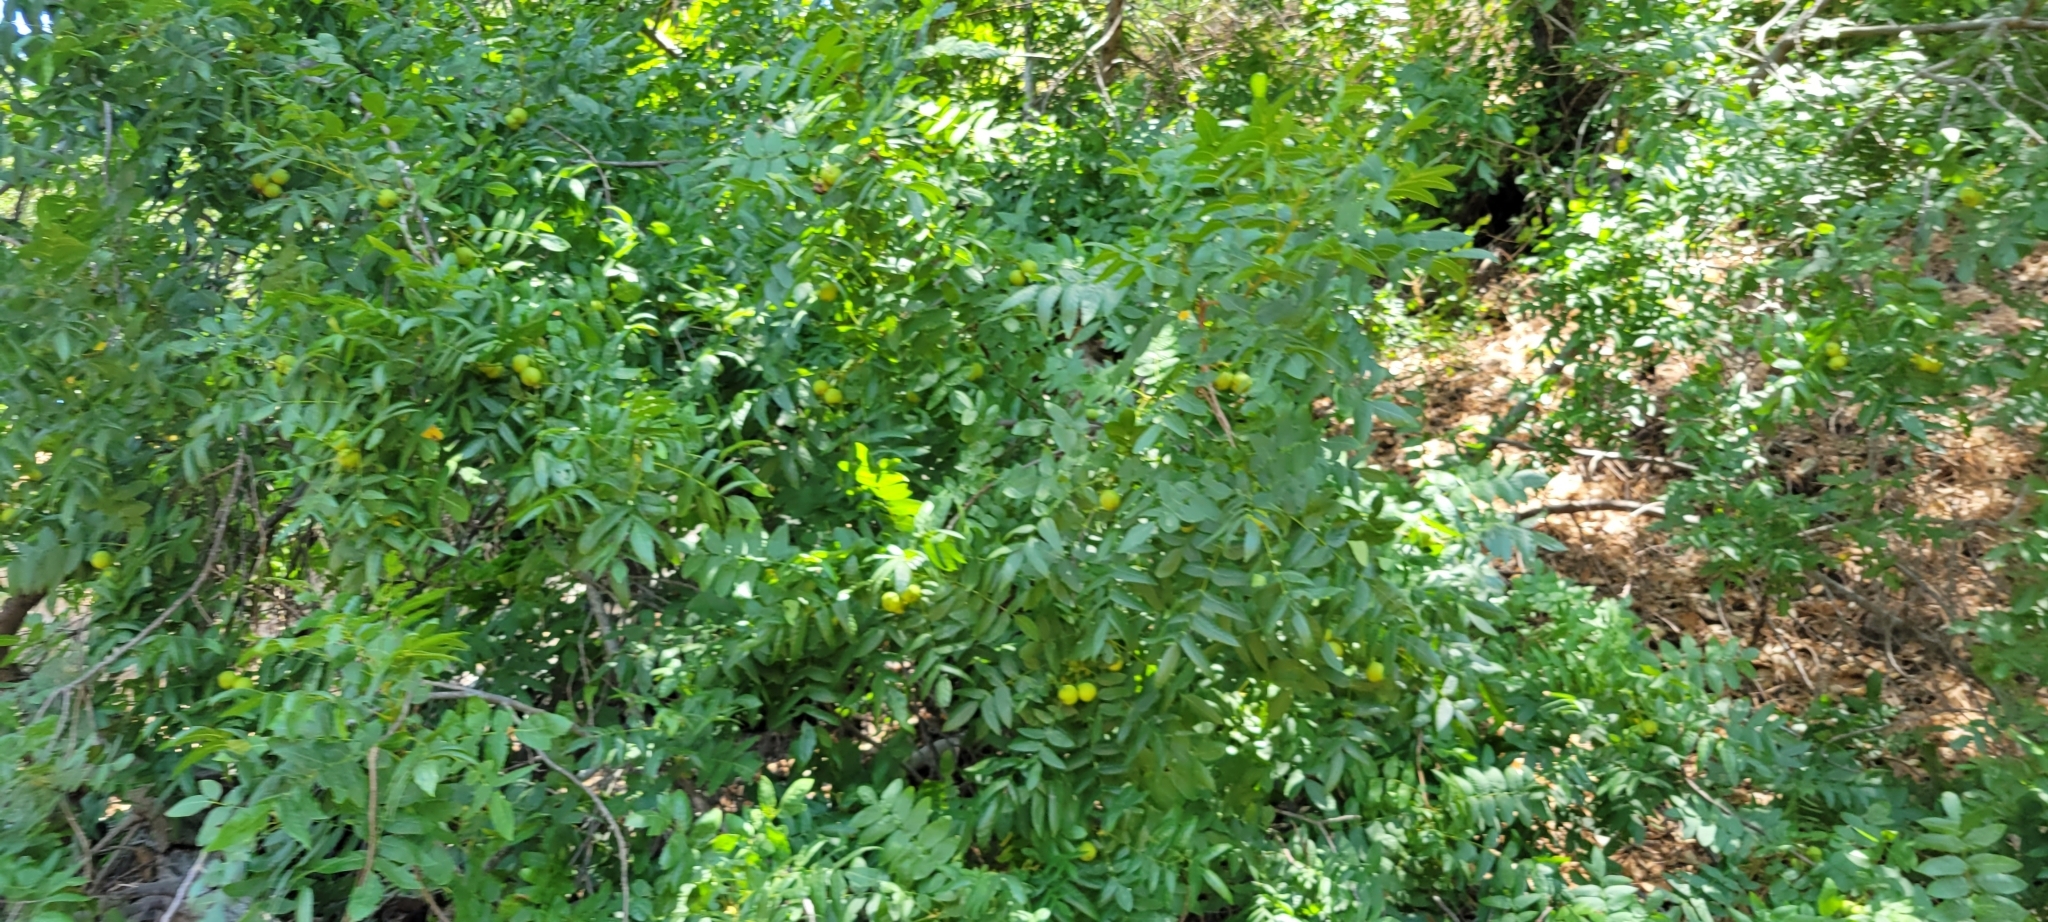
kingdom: Plantae
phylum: Tracheophyta
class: Magnoliopsida
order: Fagales
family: Juglandaceae
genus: Juglans
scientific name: Juglans californica
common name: Southern california black walnut
